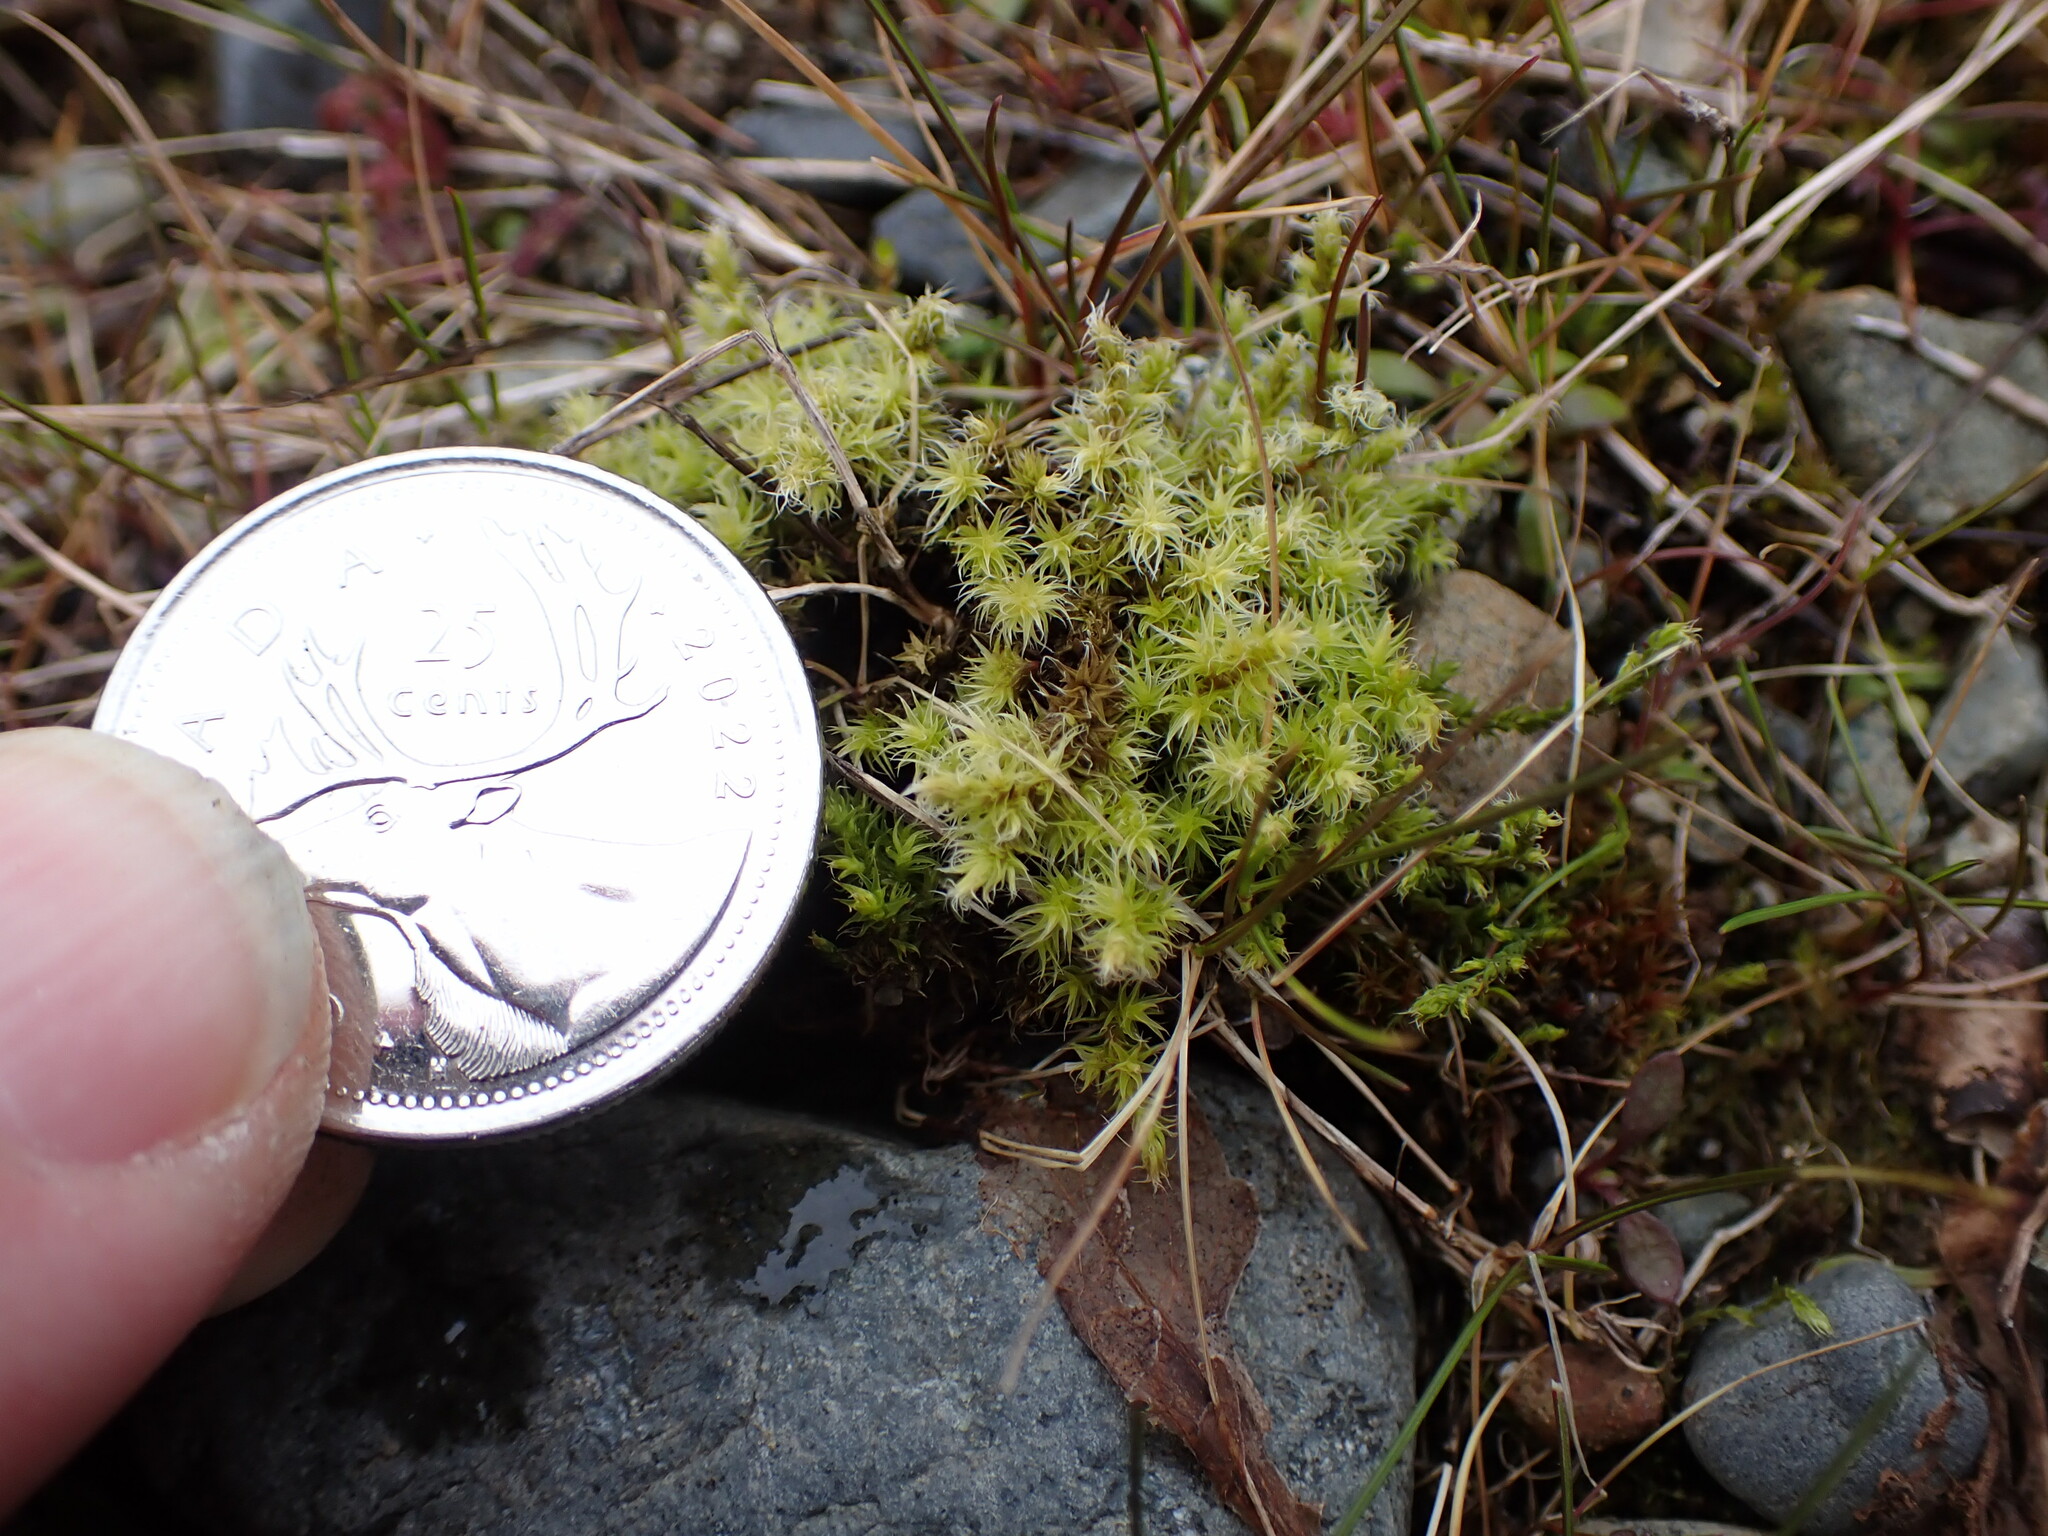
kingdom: Plantae
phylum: Bryophyta
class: Bryopsida
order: Grimmiales
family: Grimmiaceae
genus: Niphotrichum
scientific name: Niphotrichum elongatum
